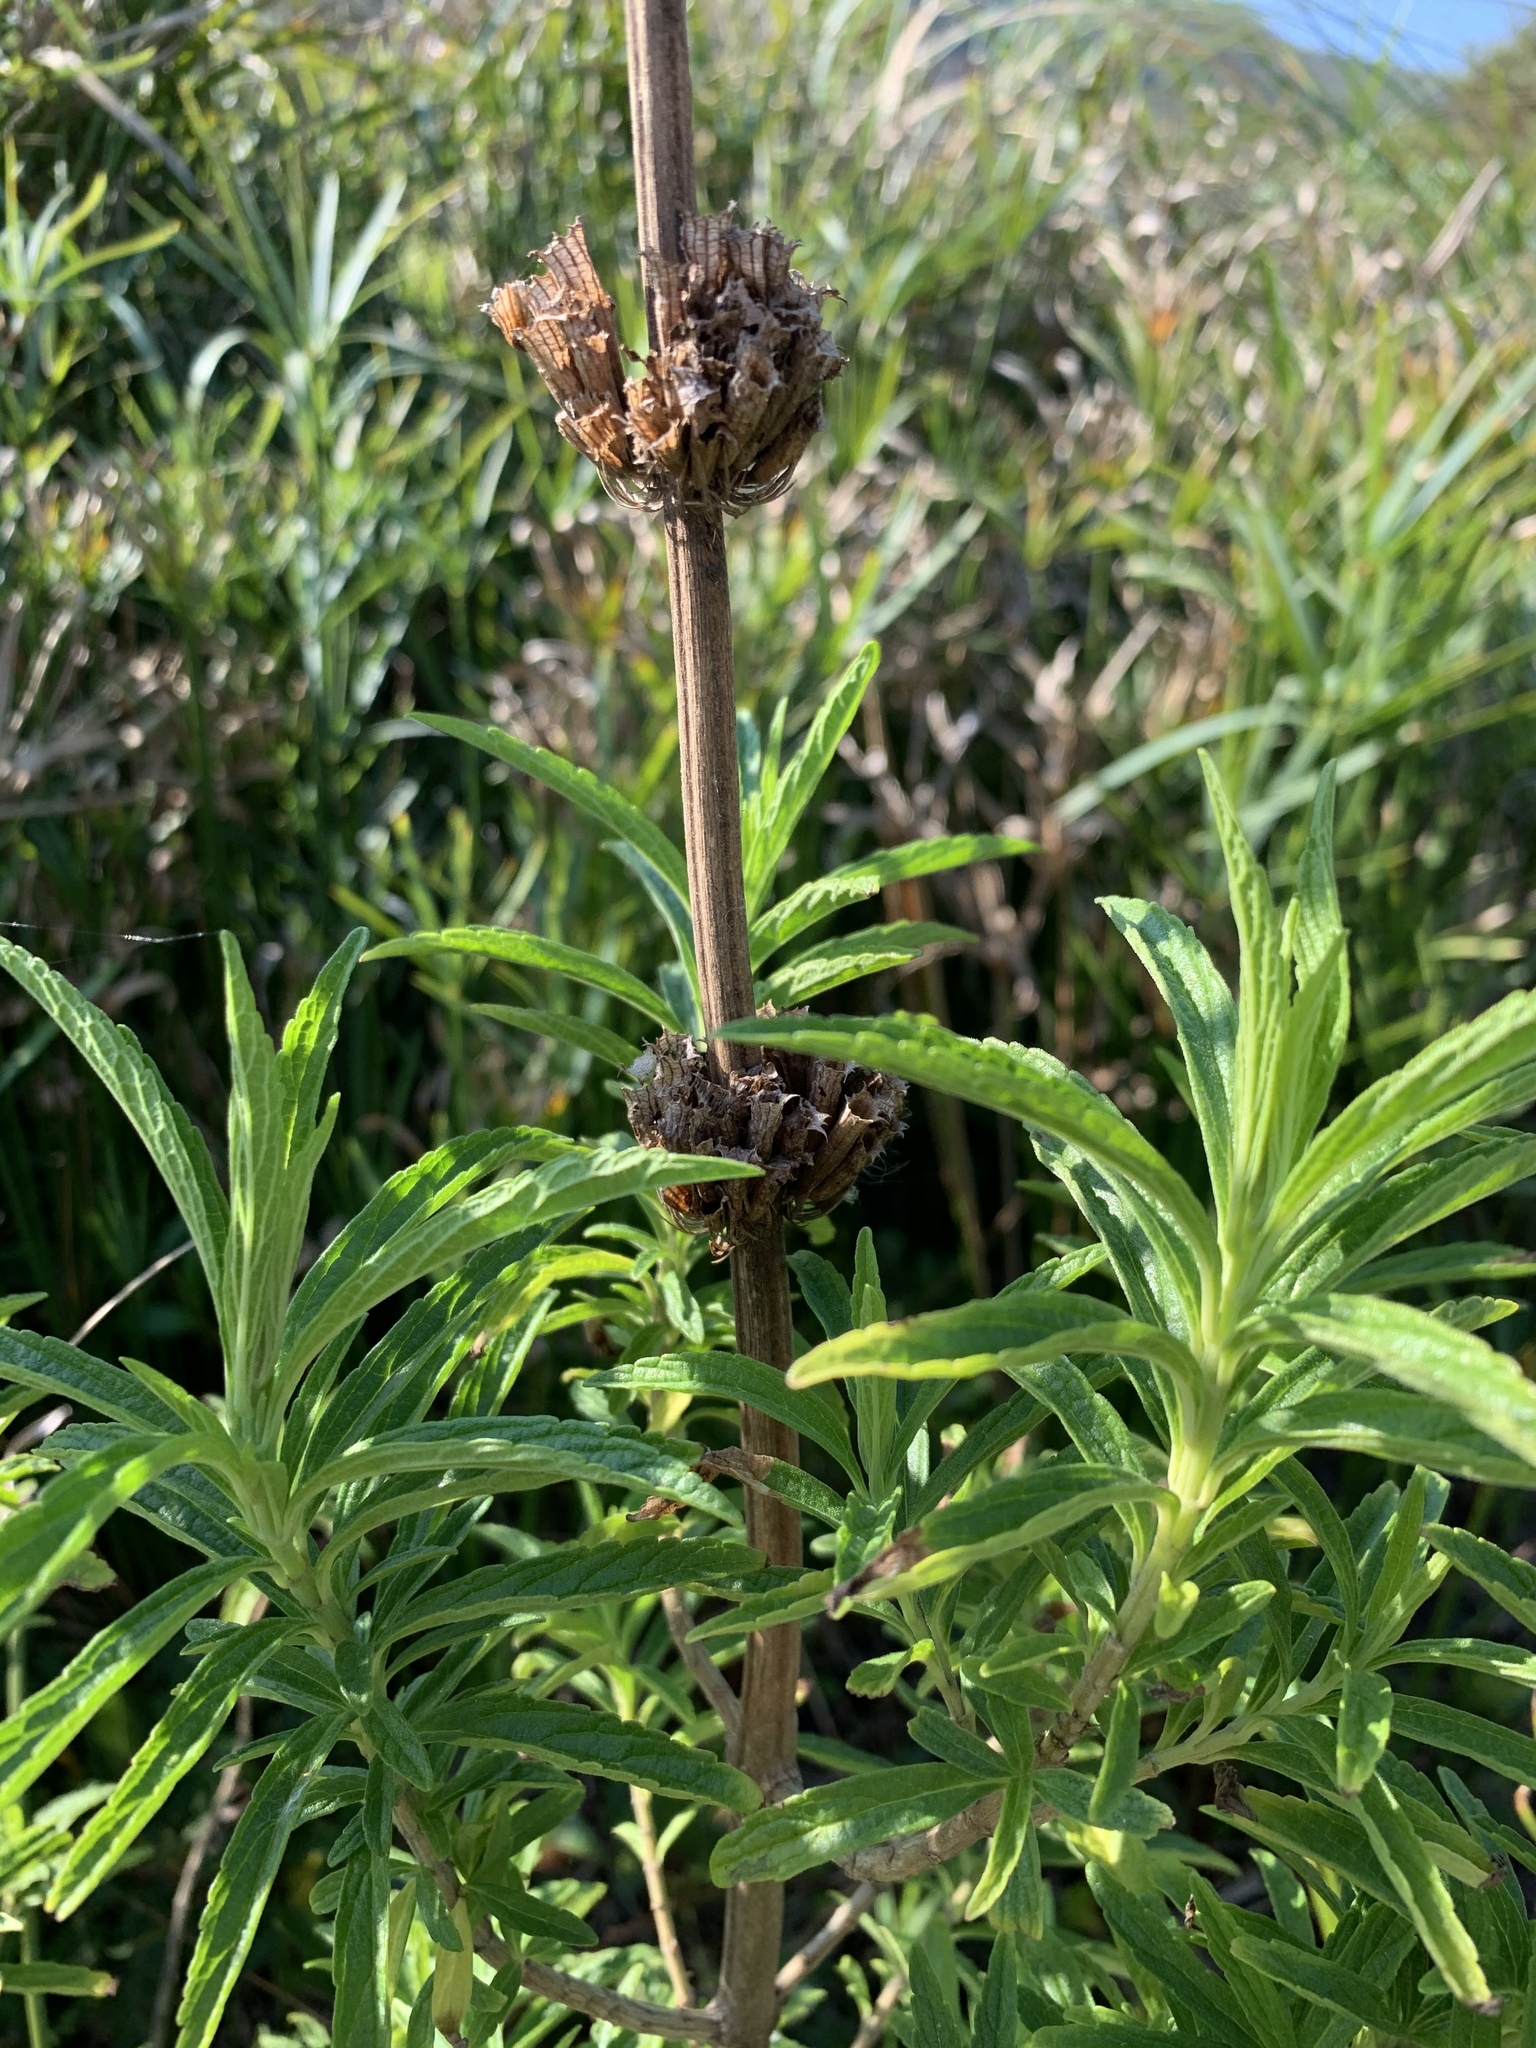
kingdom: Plantae
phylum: Tracheophyta
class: Magnoliopsida
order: Lamiales
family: Lamiaceae
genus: Leonotis
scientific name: Leonotis leonurus
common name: Lion's ear
